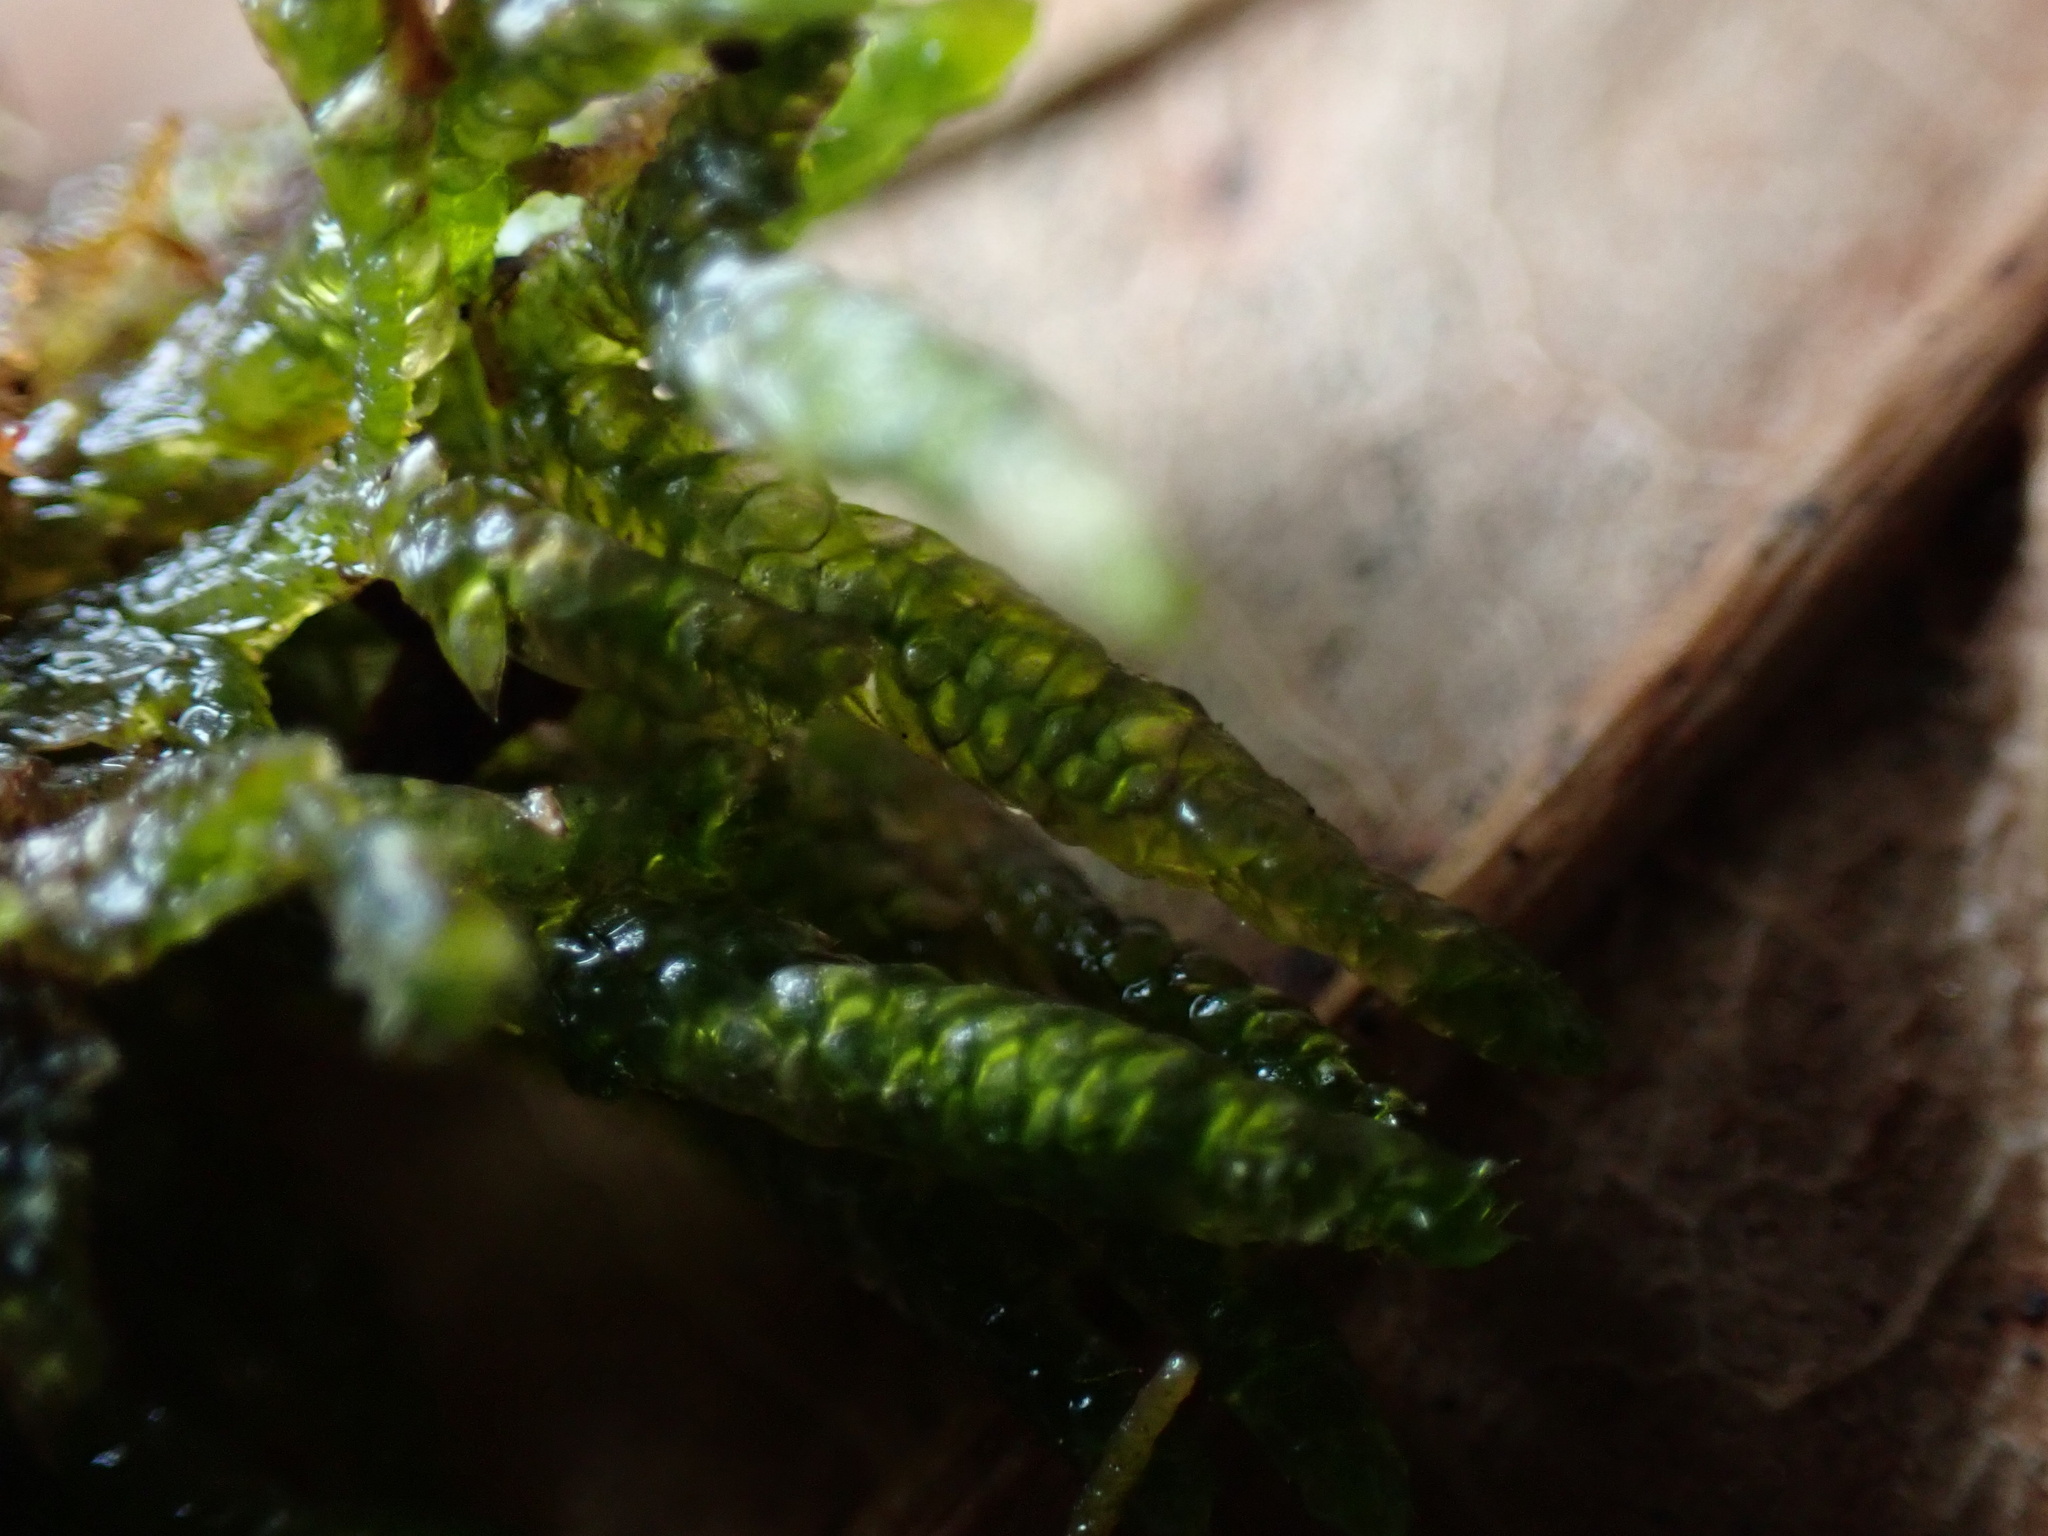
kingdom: Plantae
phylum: Bryophyta
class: Bryopsida
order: Hypnales
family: Brachytheciaceae
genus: Bryoandersonia
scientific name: Bryoandersonia illecebra
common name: Spoon-leaved moss
